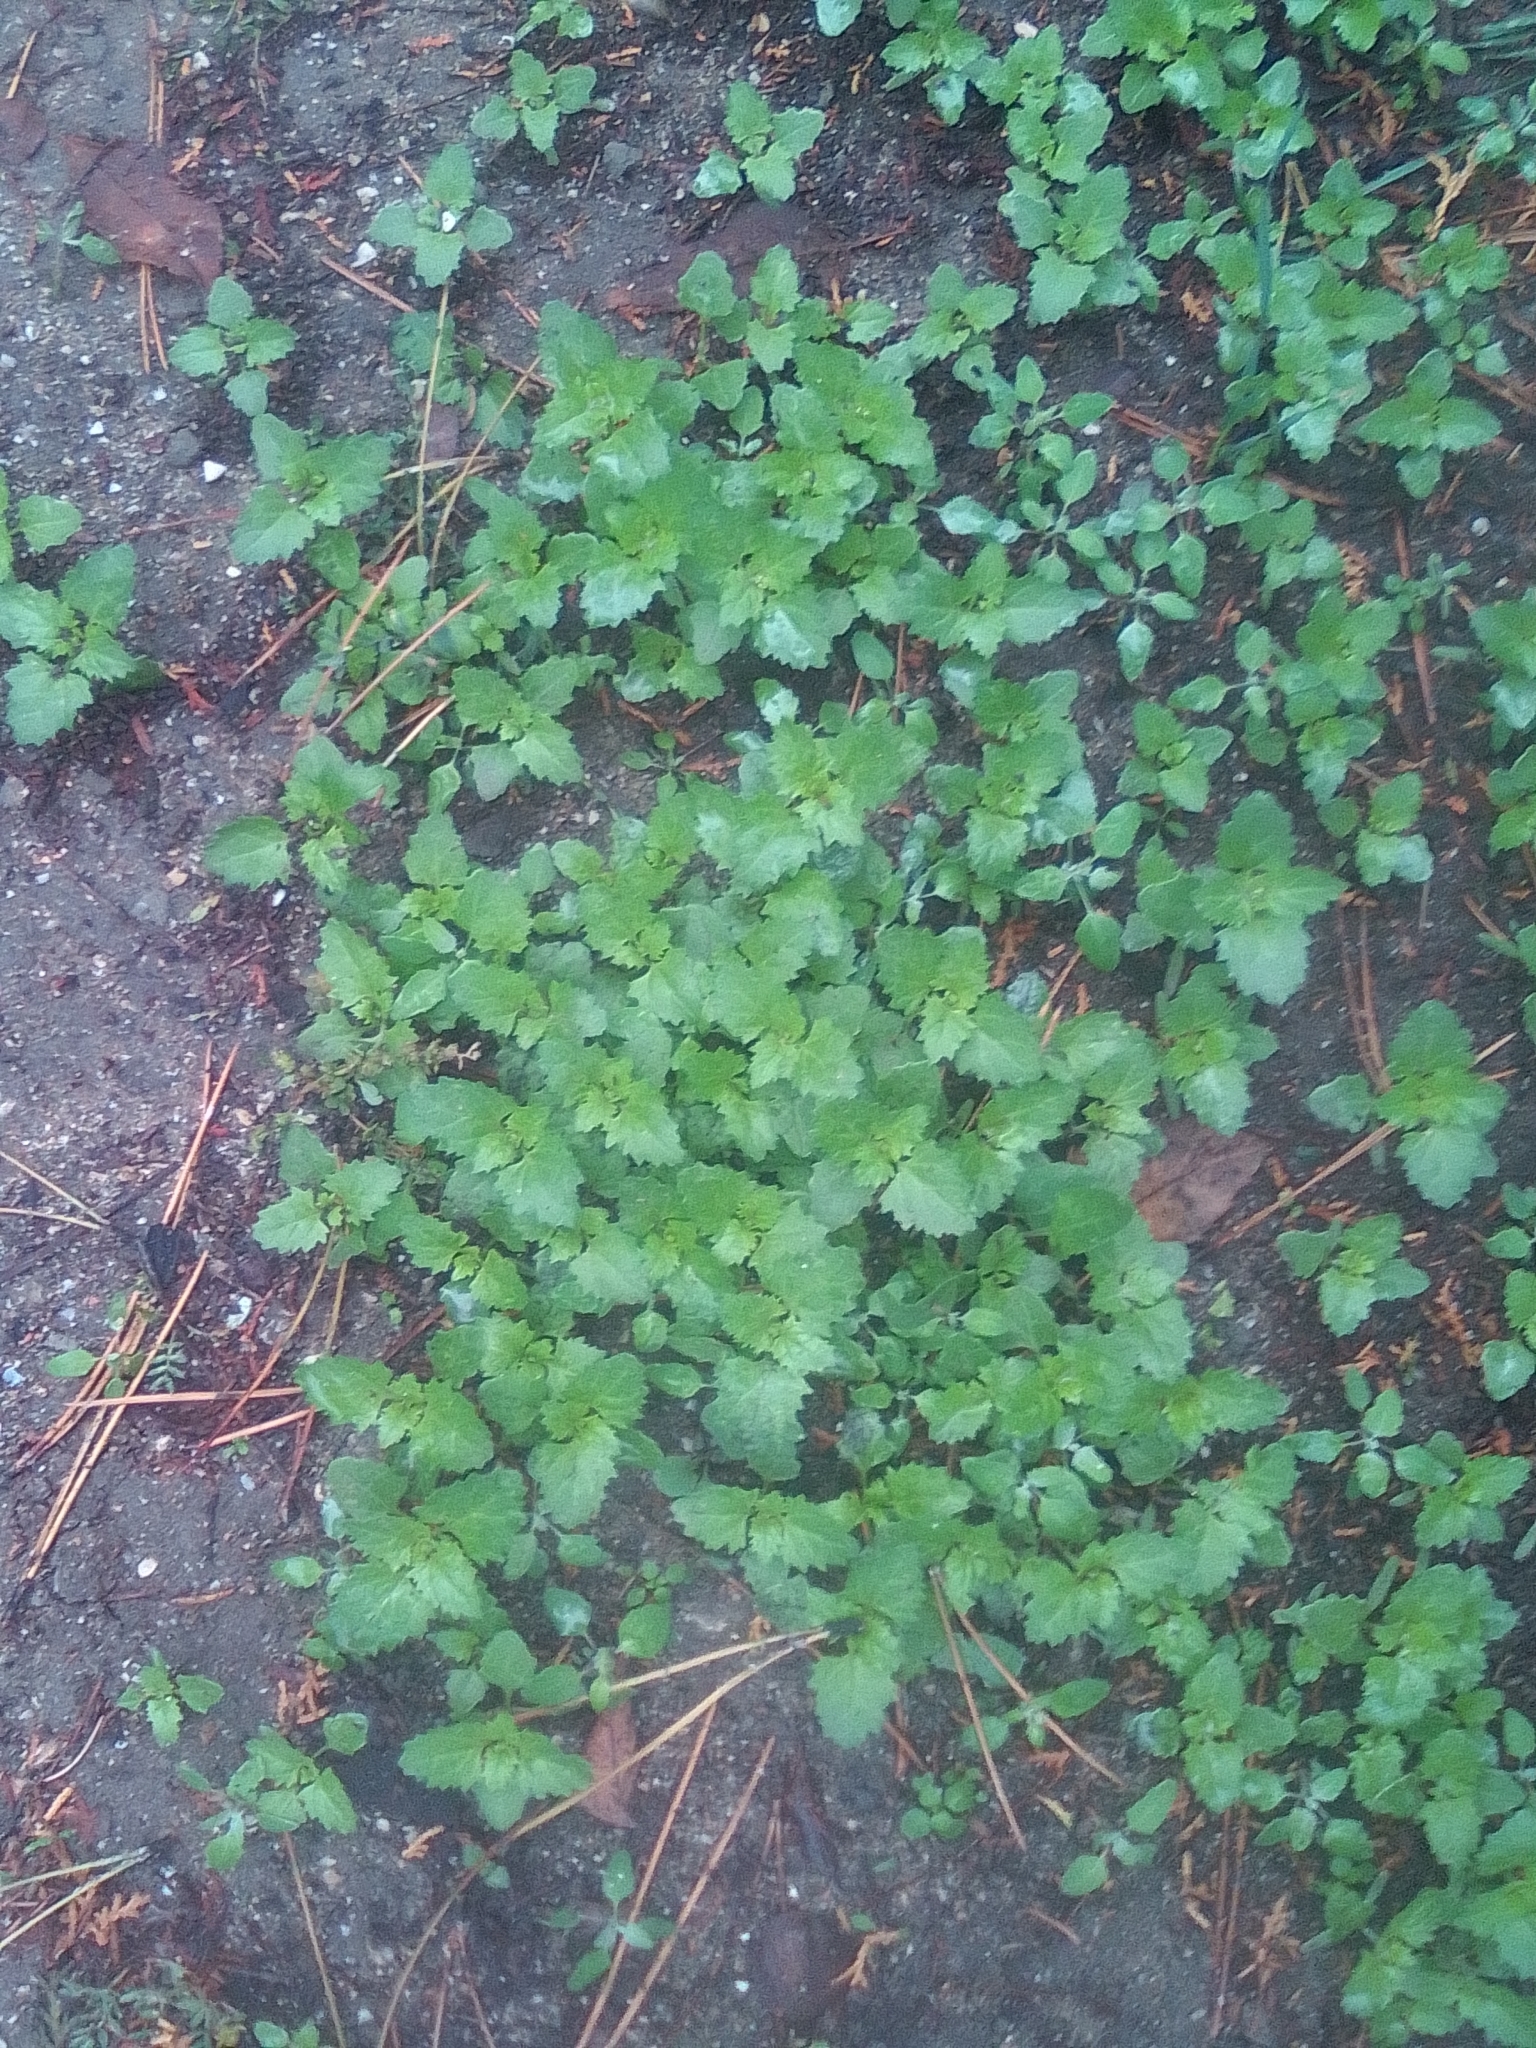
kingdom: Plantae
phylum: Tracheophyta
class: Magnoliopsida
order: Caryophyllales
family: Amaranthaceae
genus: Chenopodiastrum
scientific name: Chenopodiastrum murale
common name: Sowbane
